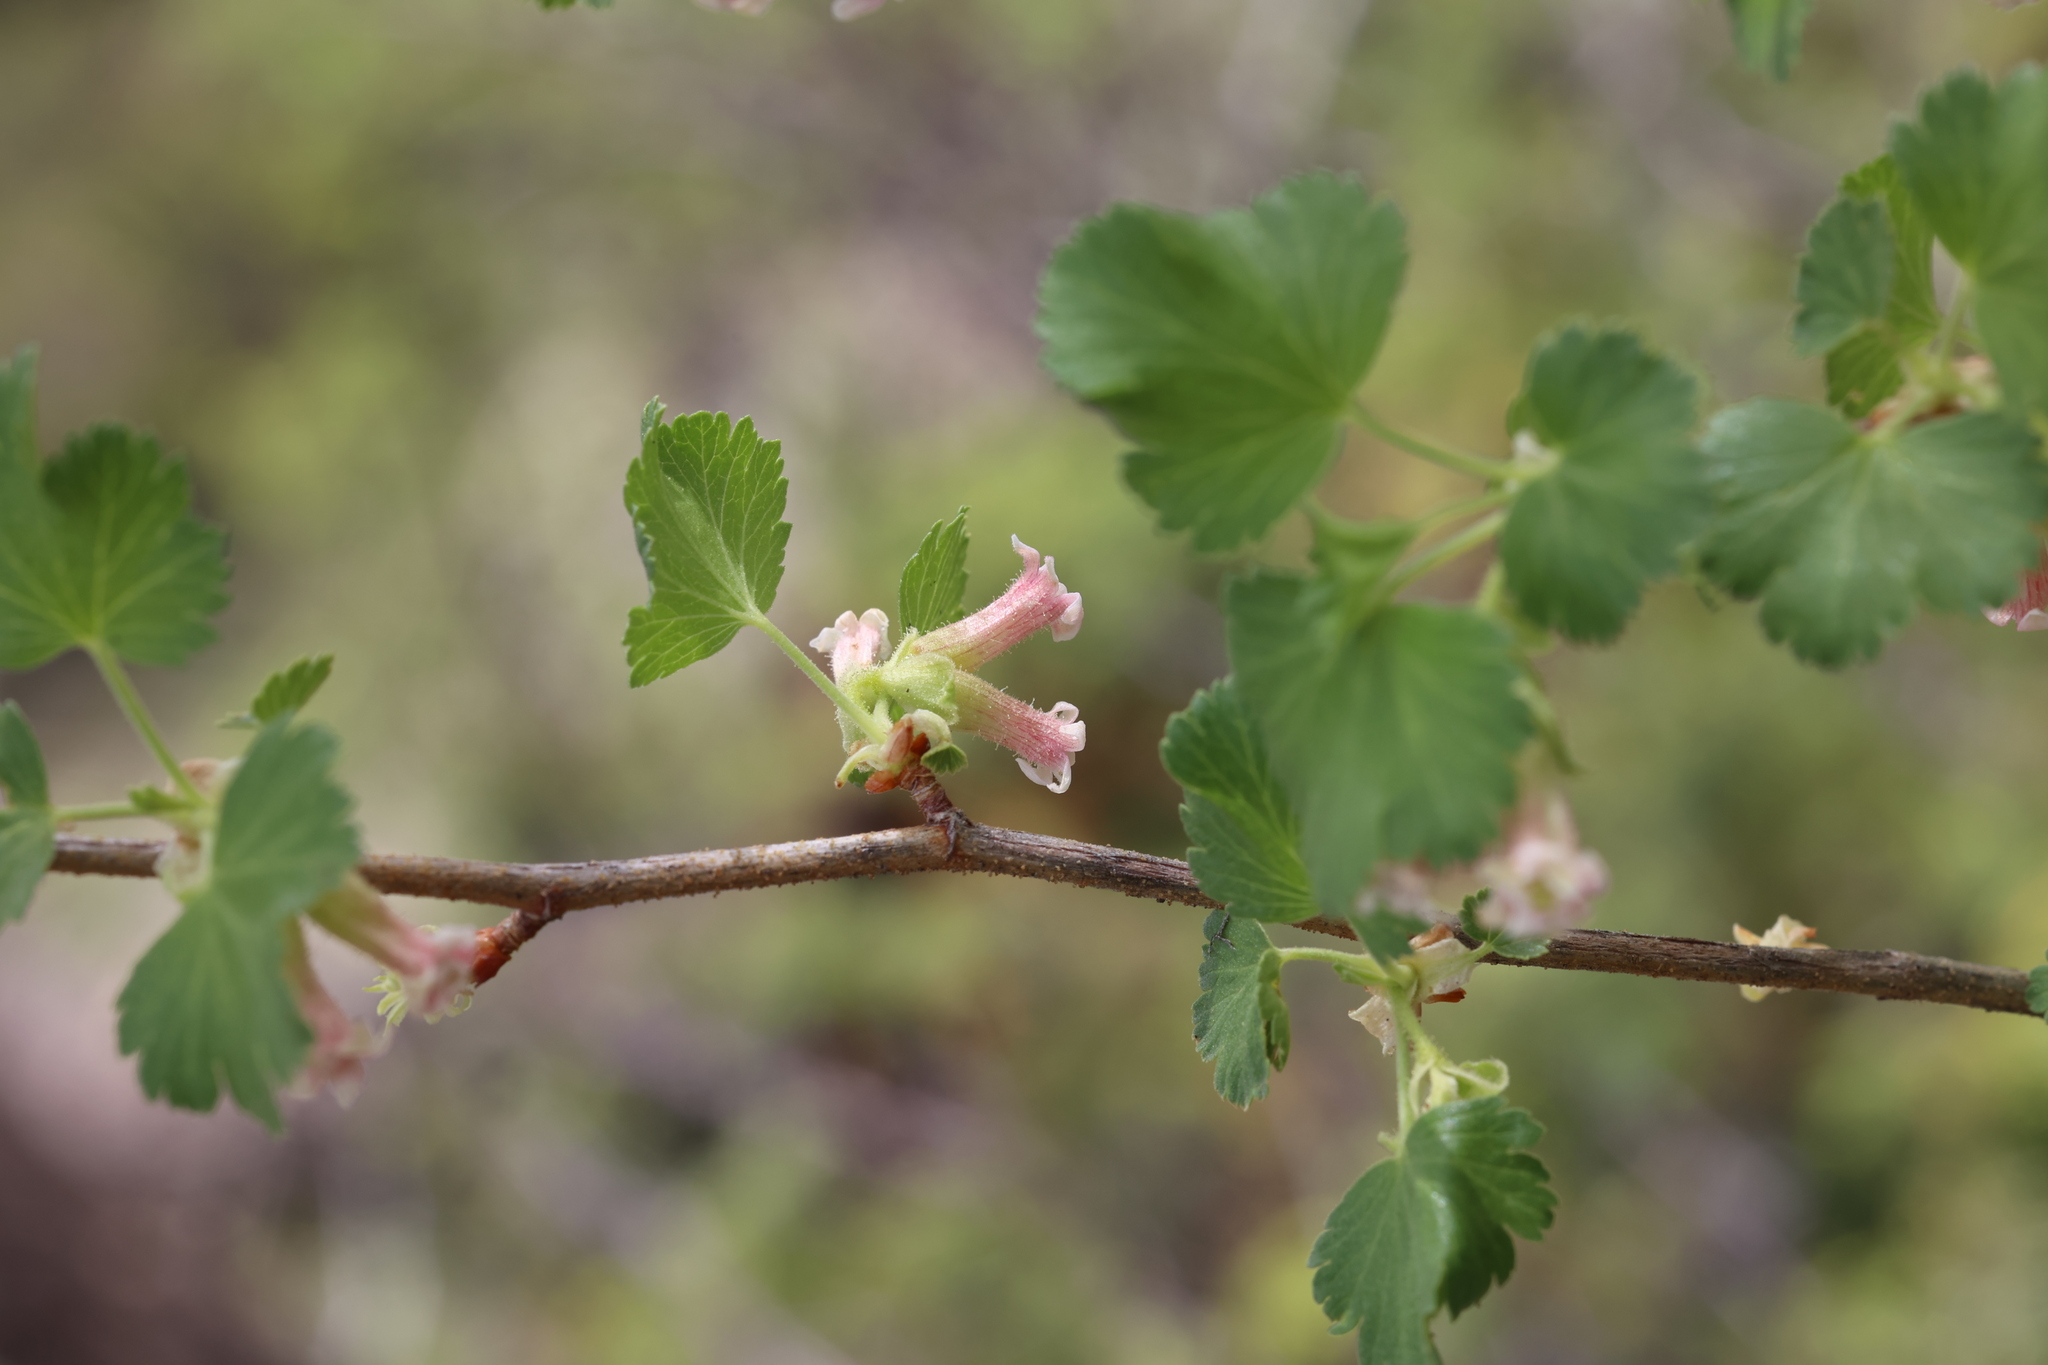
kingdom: Plantae
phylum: Tracheophyta
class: Magnoliopsida
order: Saxifragales
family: Grossulariaceae
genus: Ribes
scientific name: Ribes cereum
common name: Wax currant
